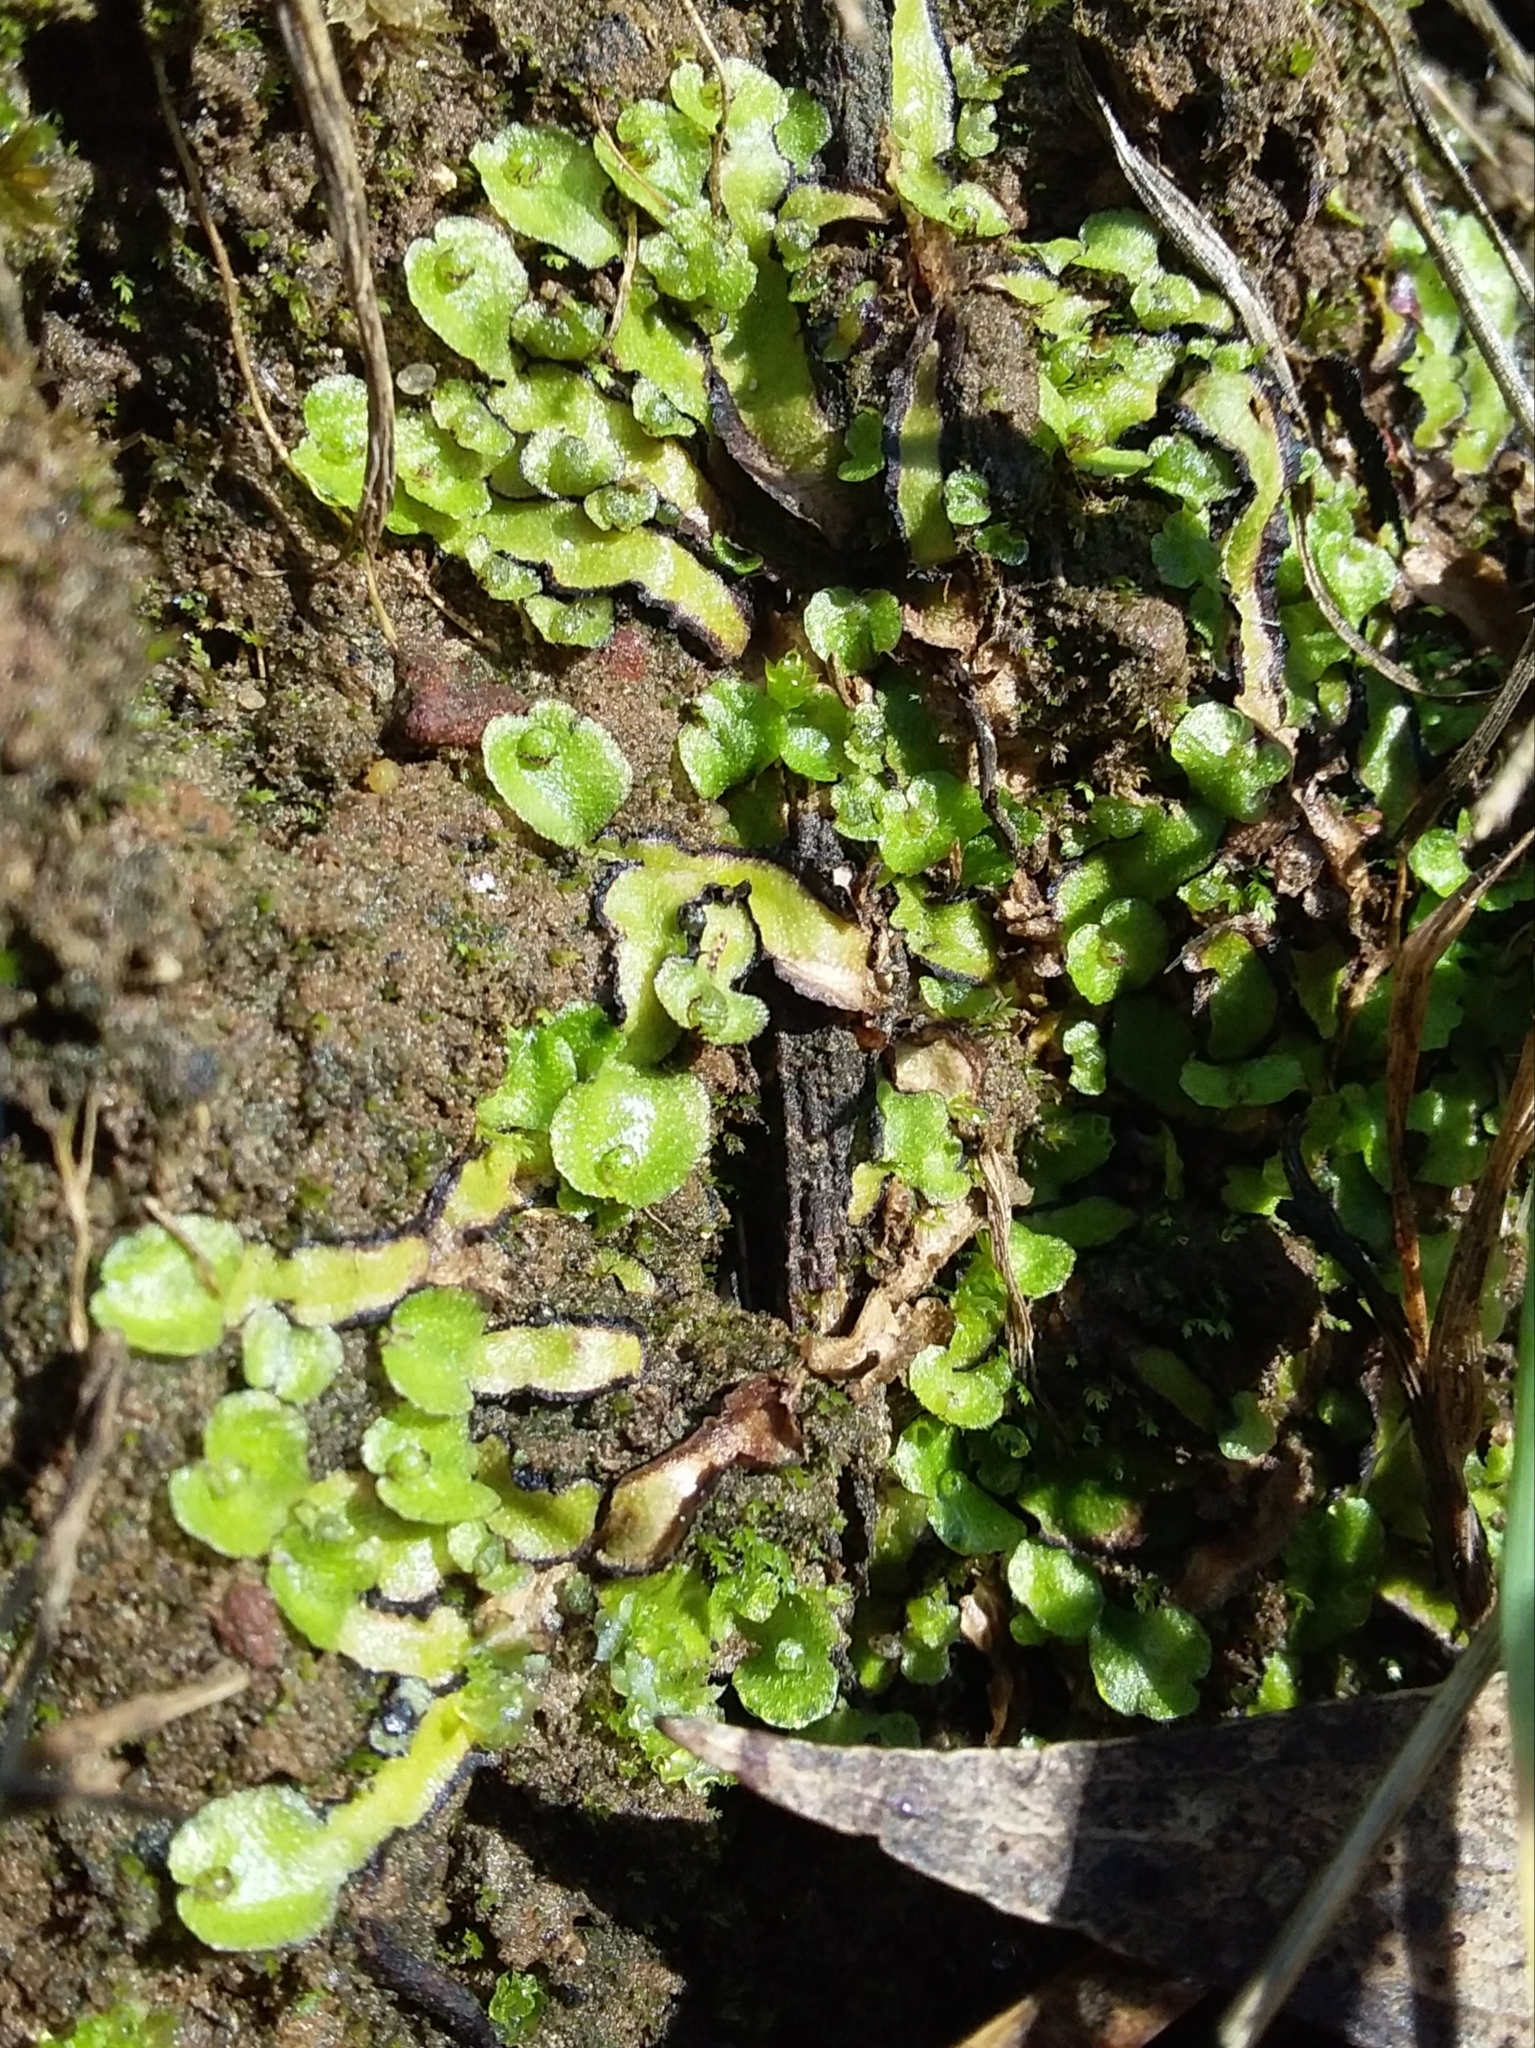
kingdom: Plantae
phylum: Marchantiophyta
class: Marchantiopsida
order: Marchantiales
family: Aytoniaceae
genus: Asterella
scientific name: Asterella drummondii
